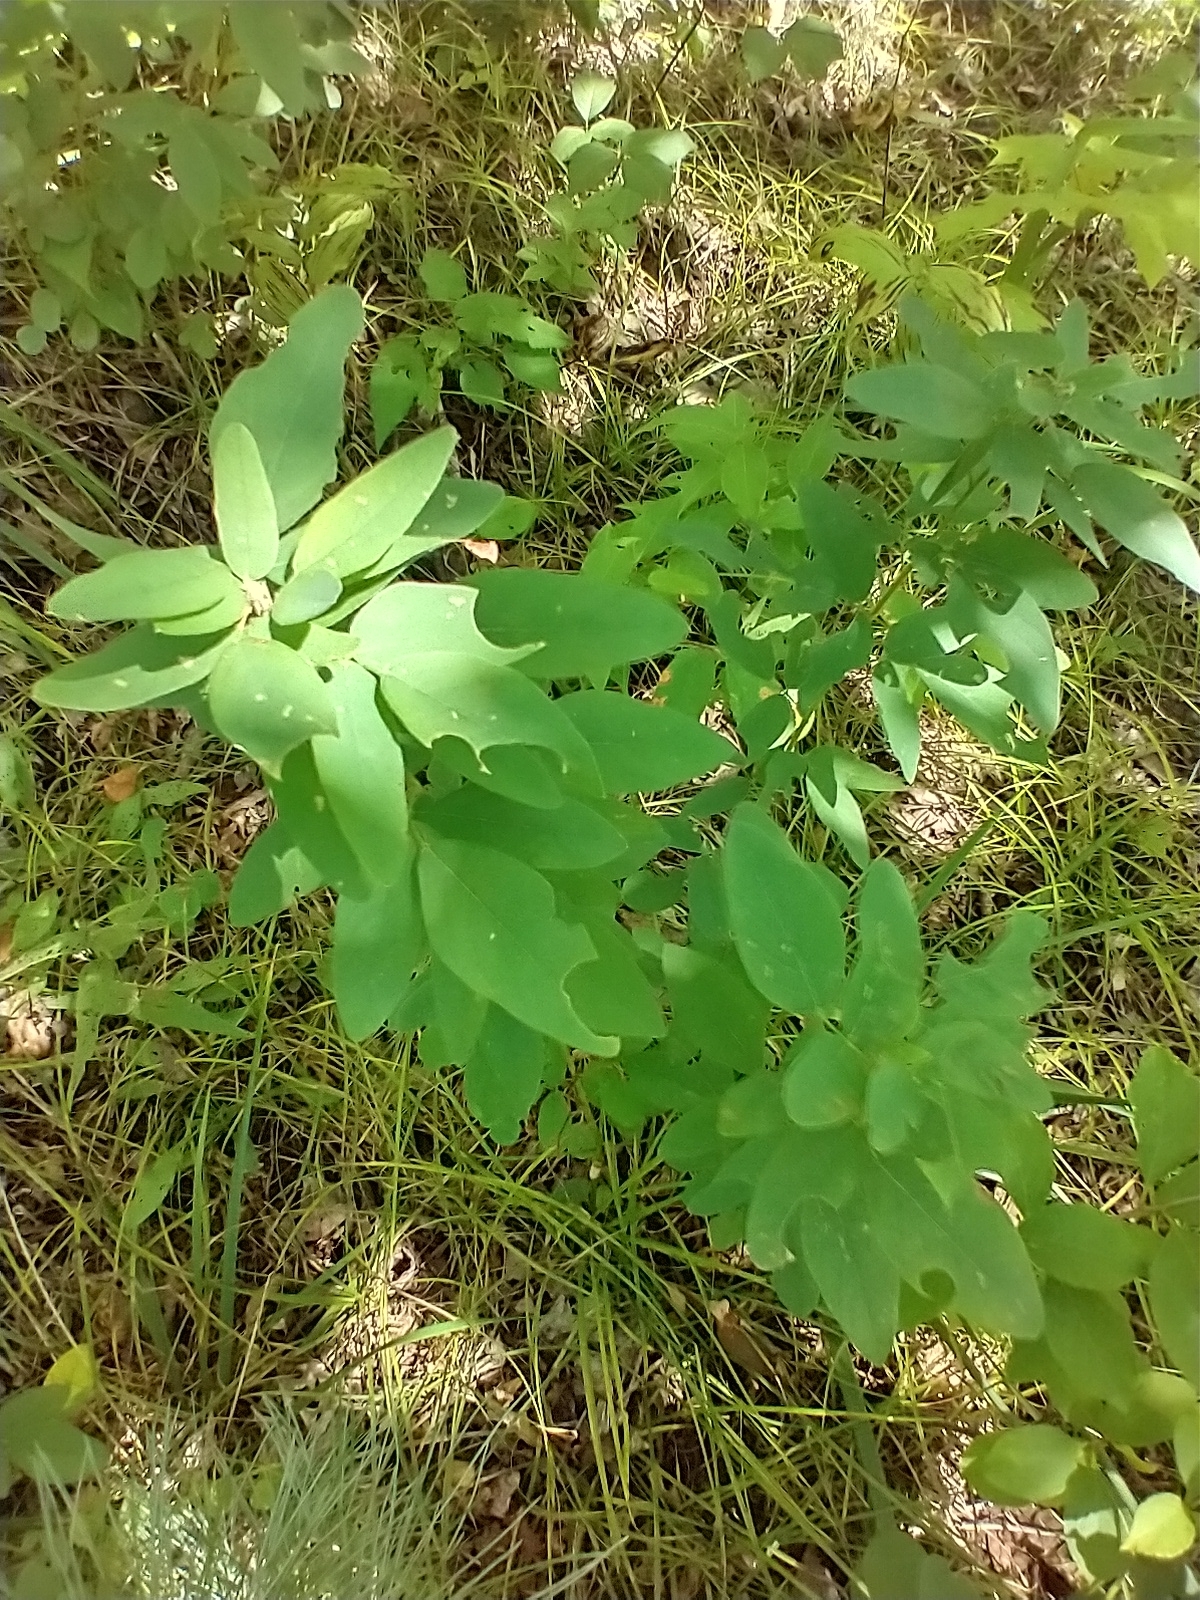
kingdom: Plantae
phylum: Tracheophyta
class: Magnoliopsida
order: Fabales
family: Fabaceae
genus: Desmodium
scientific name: Desmodium canadense
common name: Canada tick-trefoil
